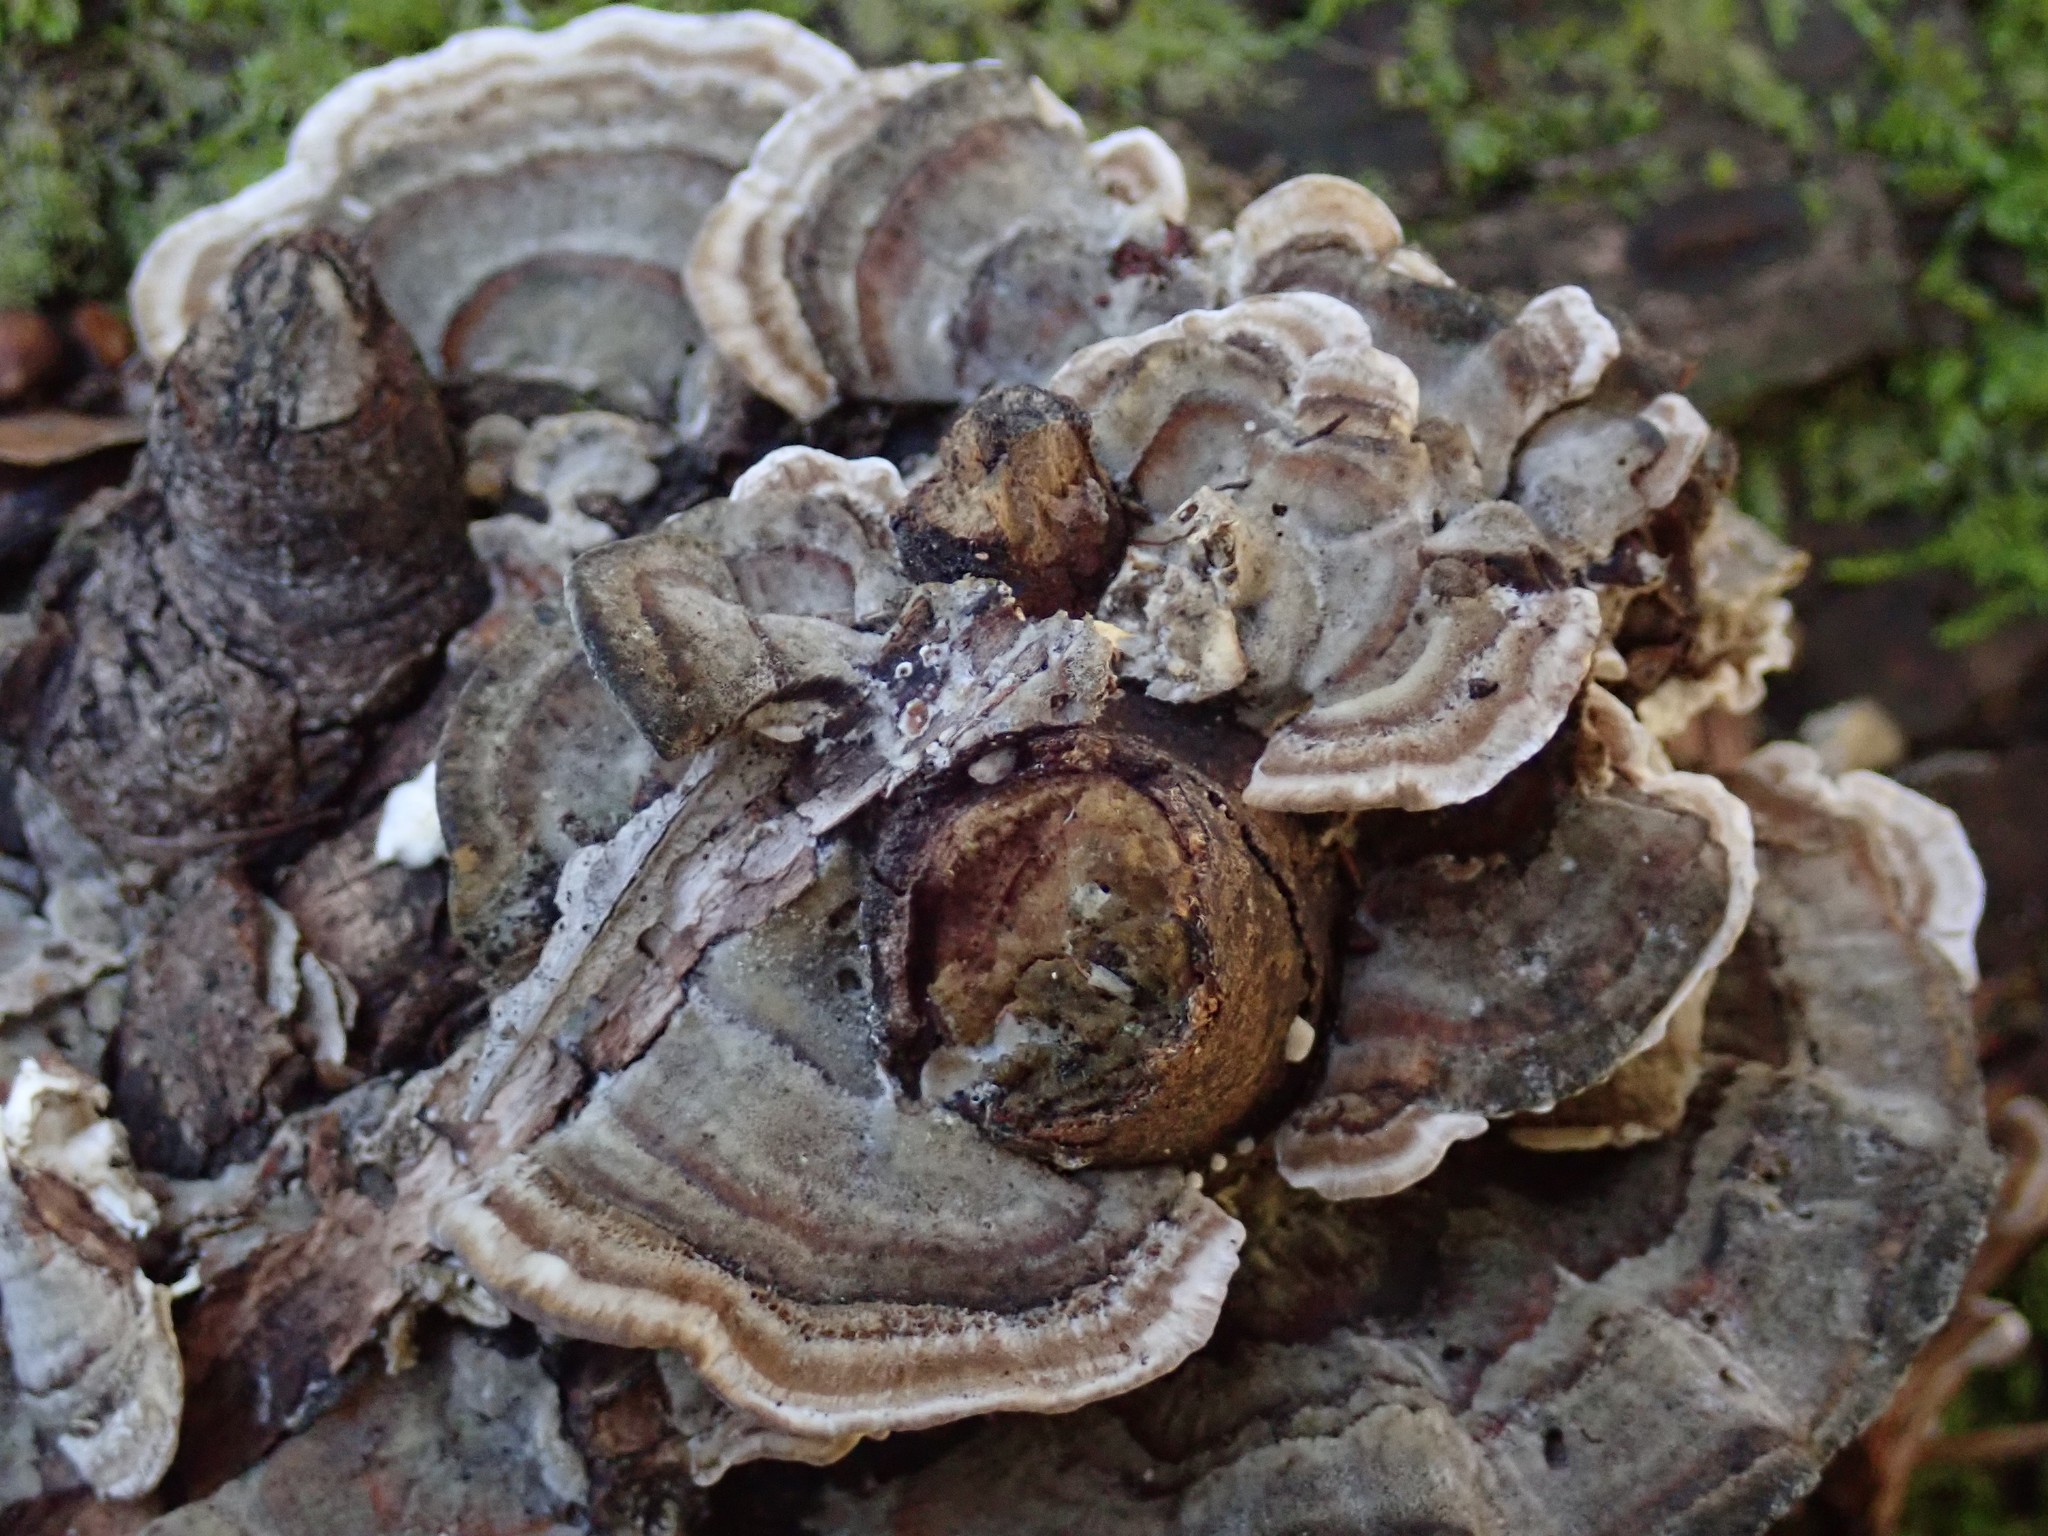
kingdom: Fungi
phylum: Basidiomycota
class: Agaricomycetes
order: Polyporales
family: Polyporaceae
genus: Trametes
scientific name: Trametes versicolor
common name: Turkeytail
